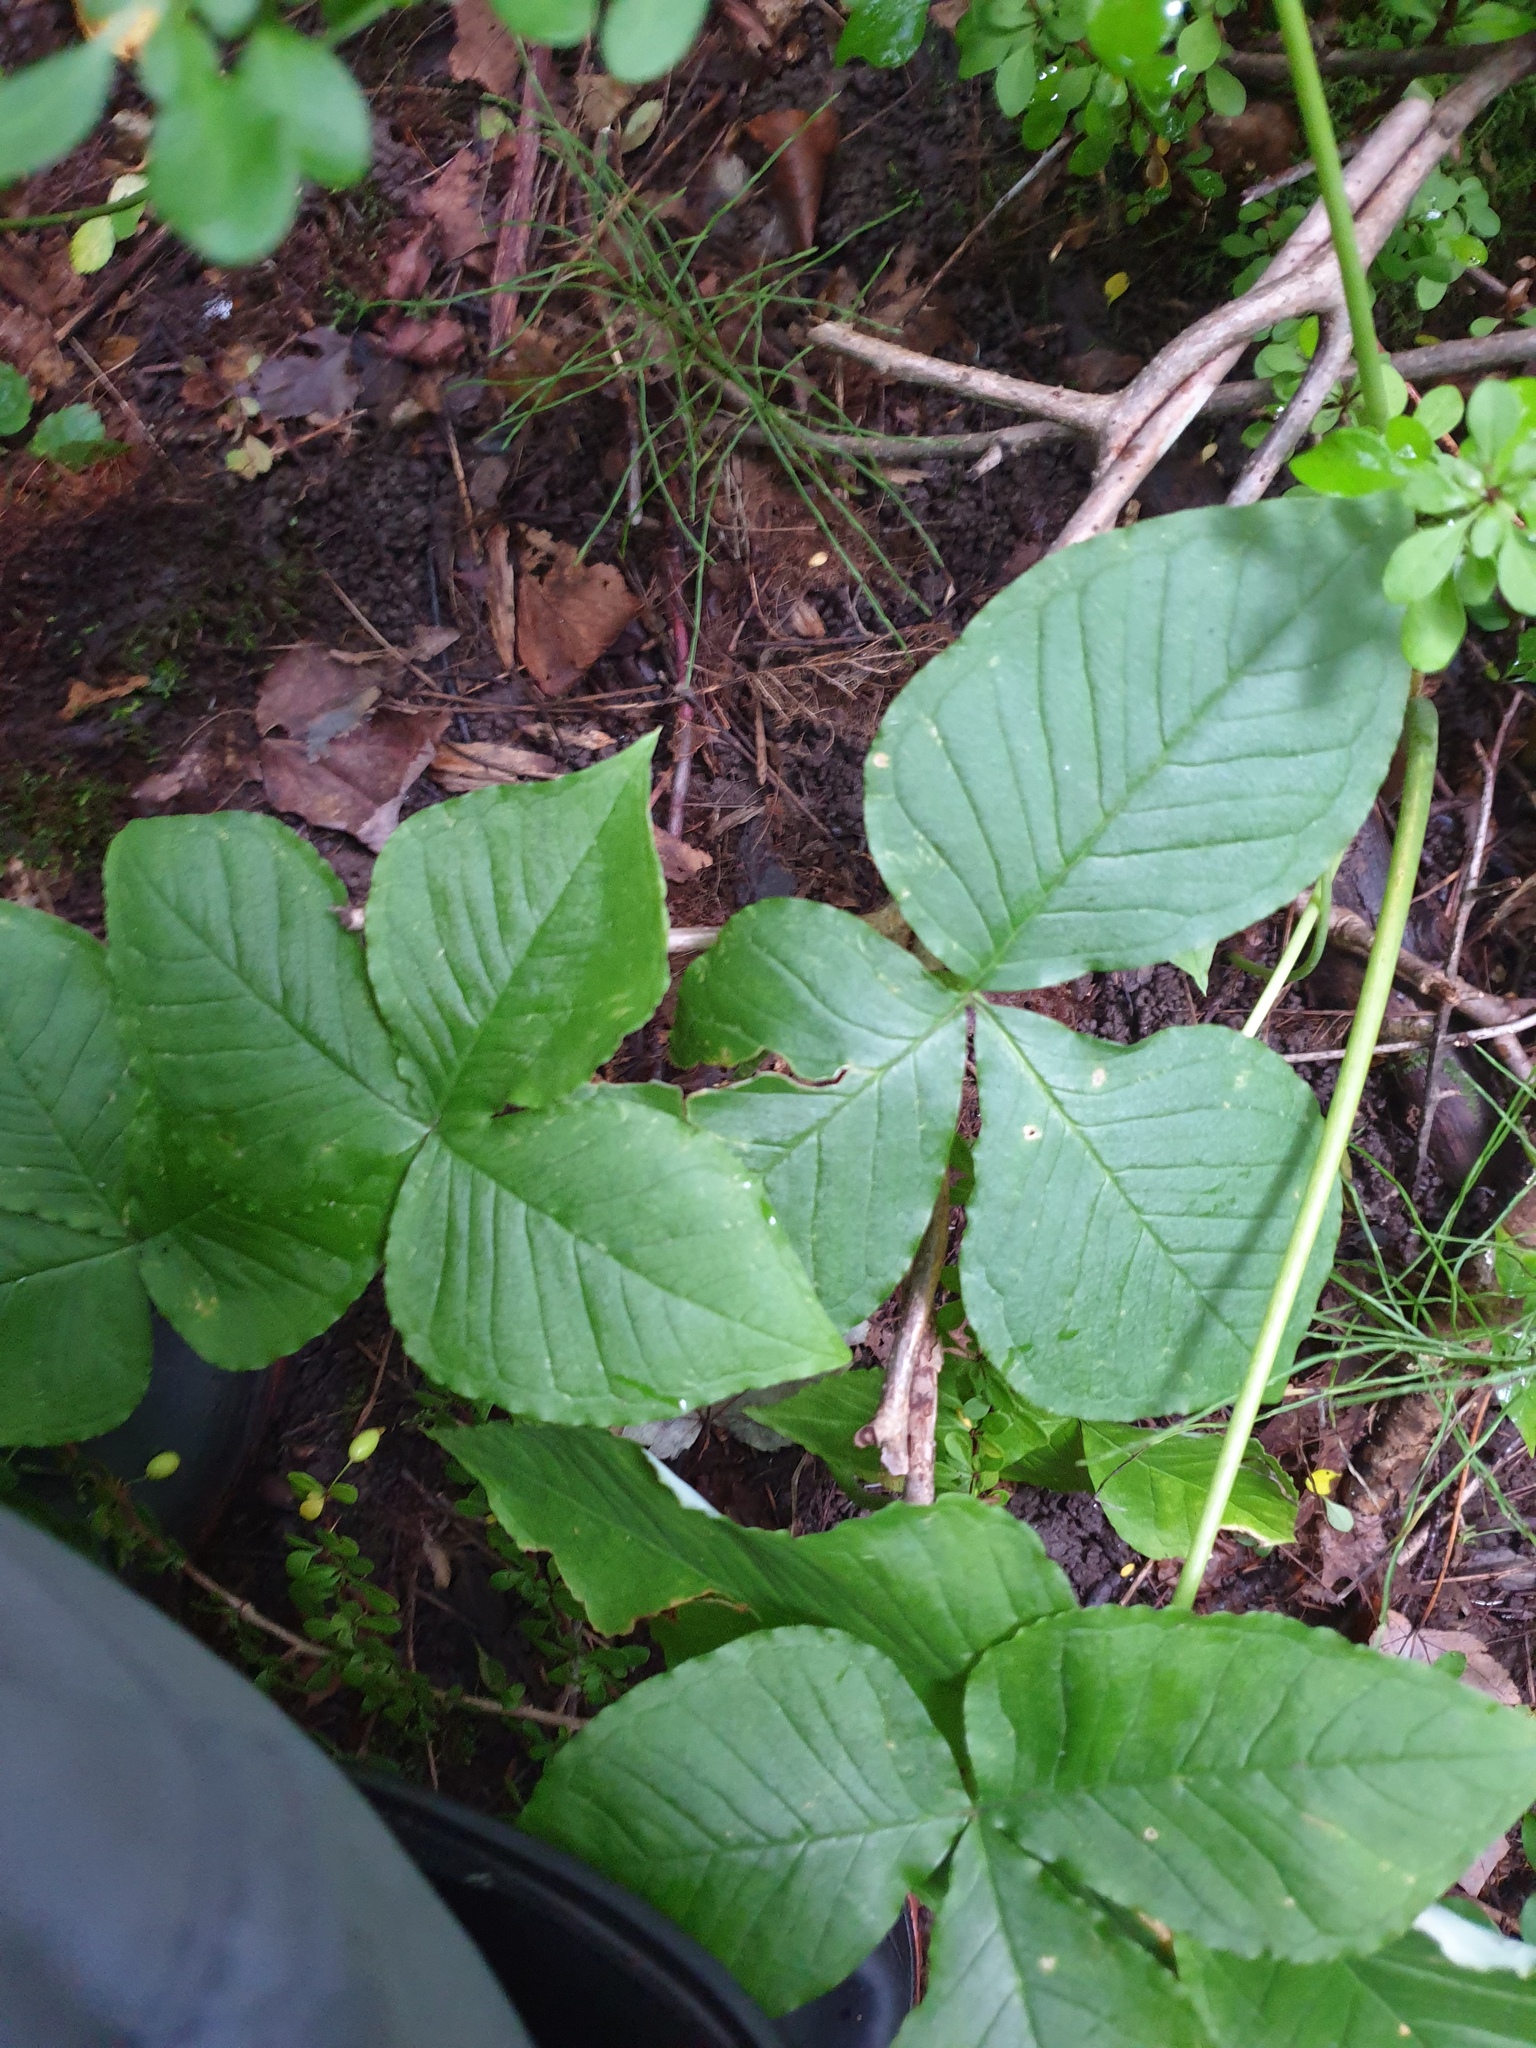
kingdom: Plantae
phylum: Tracheophyta
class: Liliopsida
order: Alismatales
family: Araceae
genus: Arisaema
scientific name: Arisaema triphyllum
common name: Jack-in-the-pulpit
